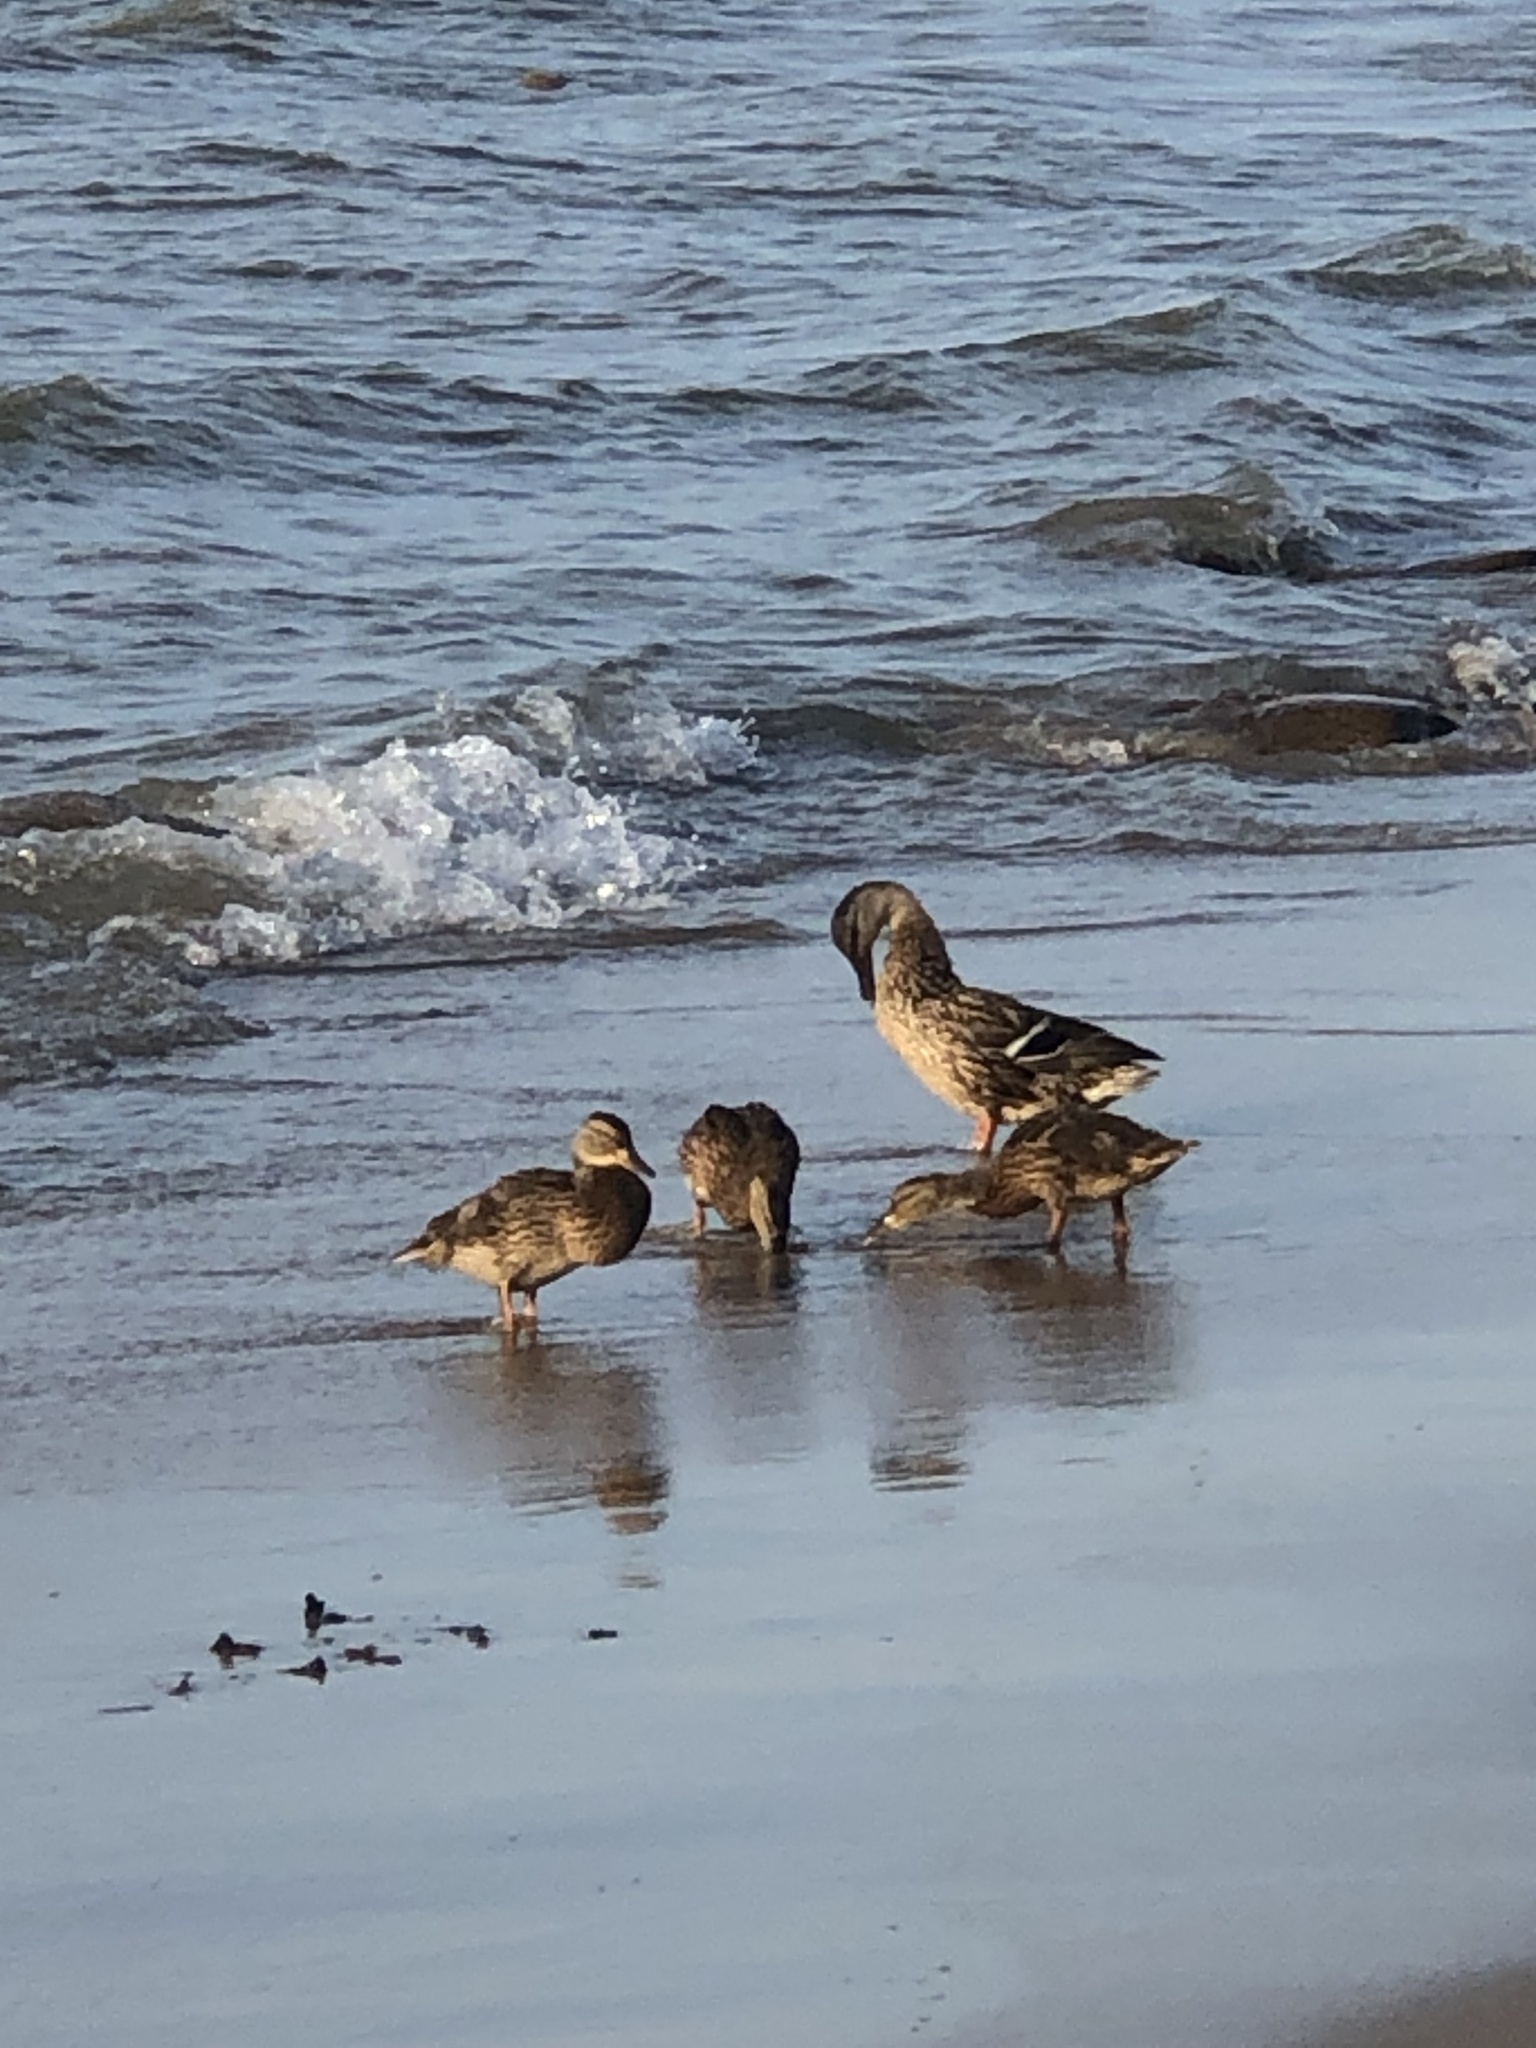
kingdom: Animalia
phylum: Chordata
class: Aves
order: Anseriformes
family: Anatidae
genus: Anas
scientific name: Anas platyrhynchos
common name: Mallard
